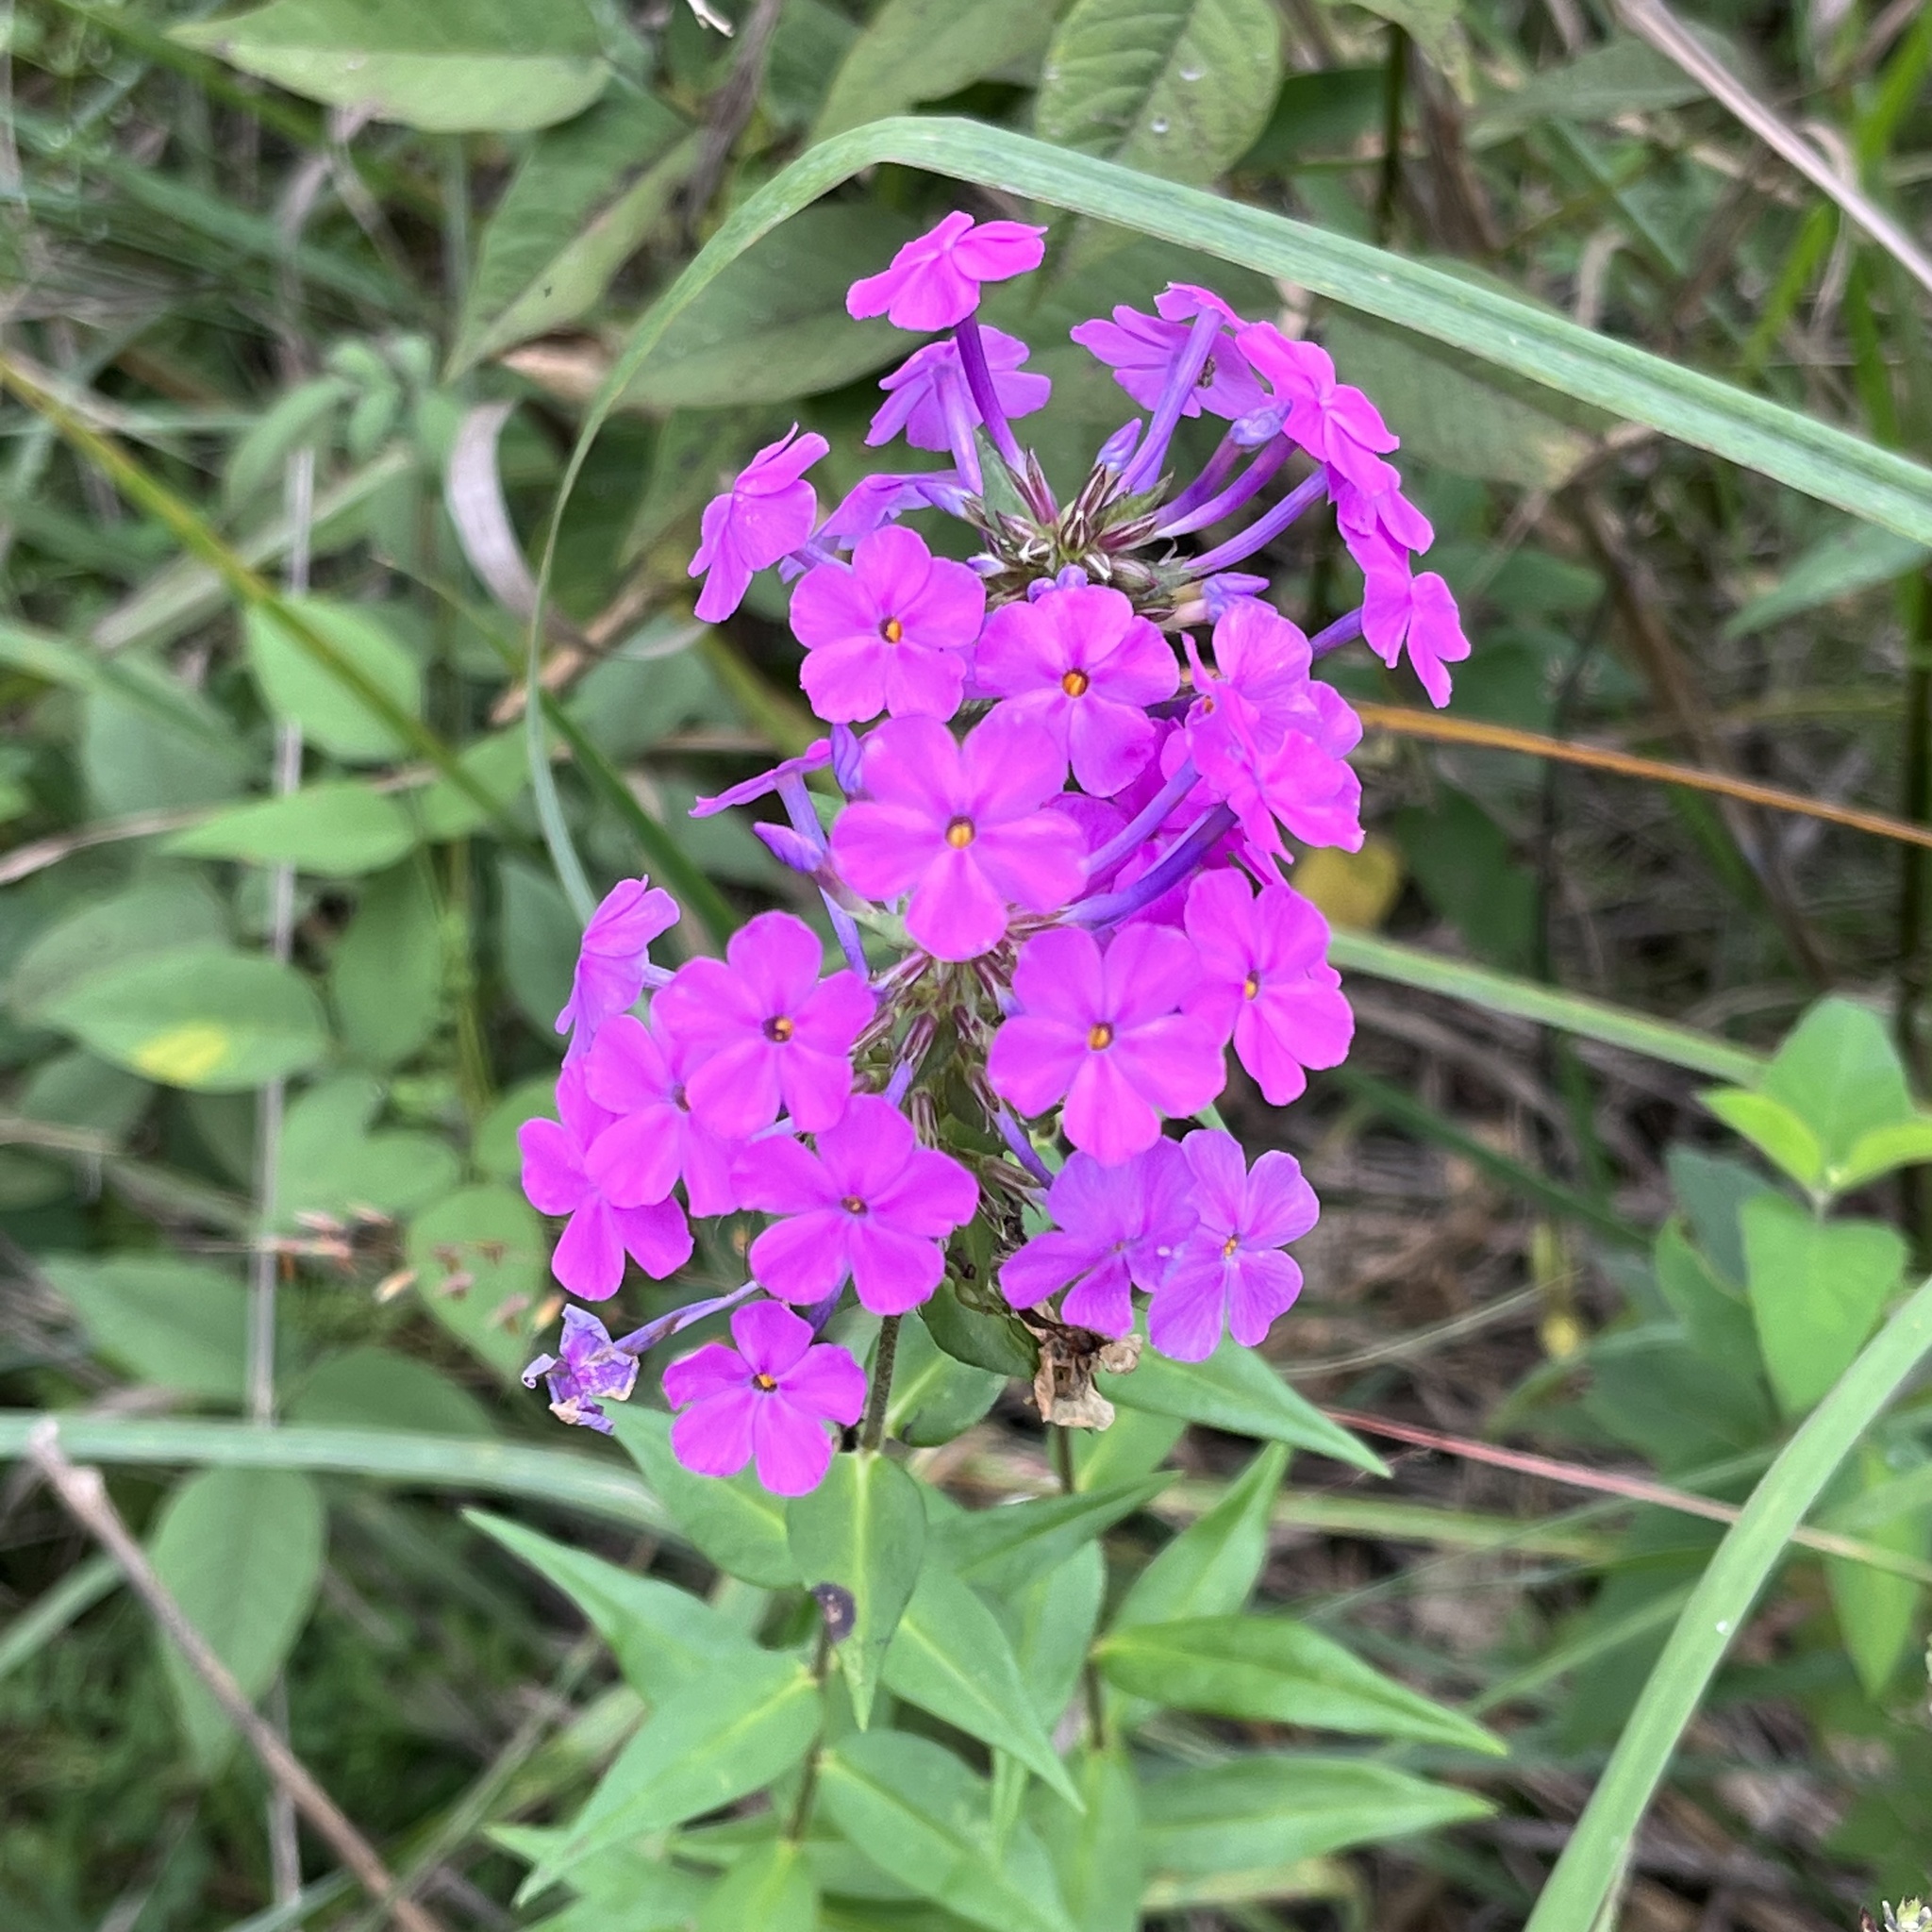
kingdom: Plantae
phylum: Tracheophyta
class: Magnoliopsida
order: Ericales
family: Polemoniaceae
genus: Phlox
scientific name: Phlox maculata
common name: Meadow phlox
